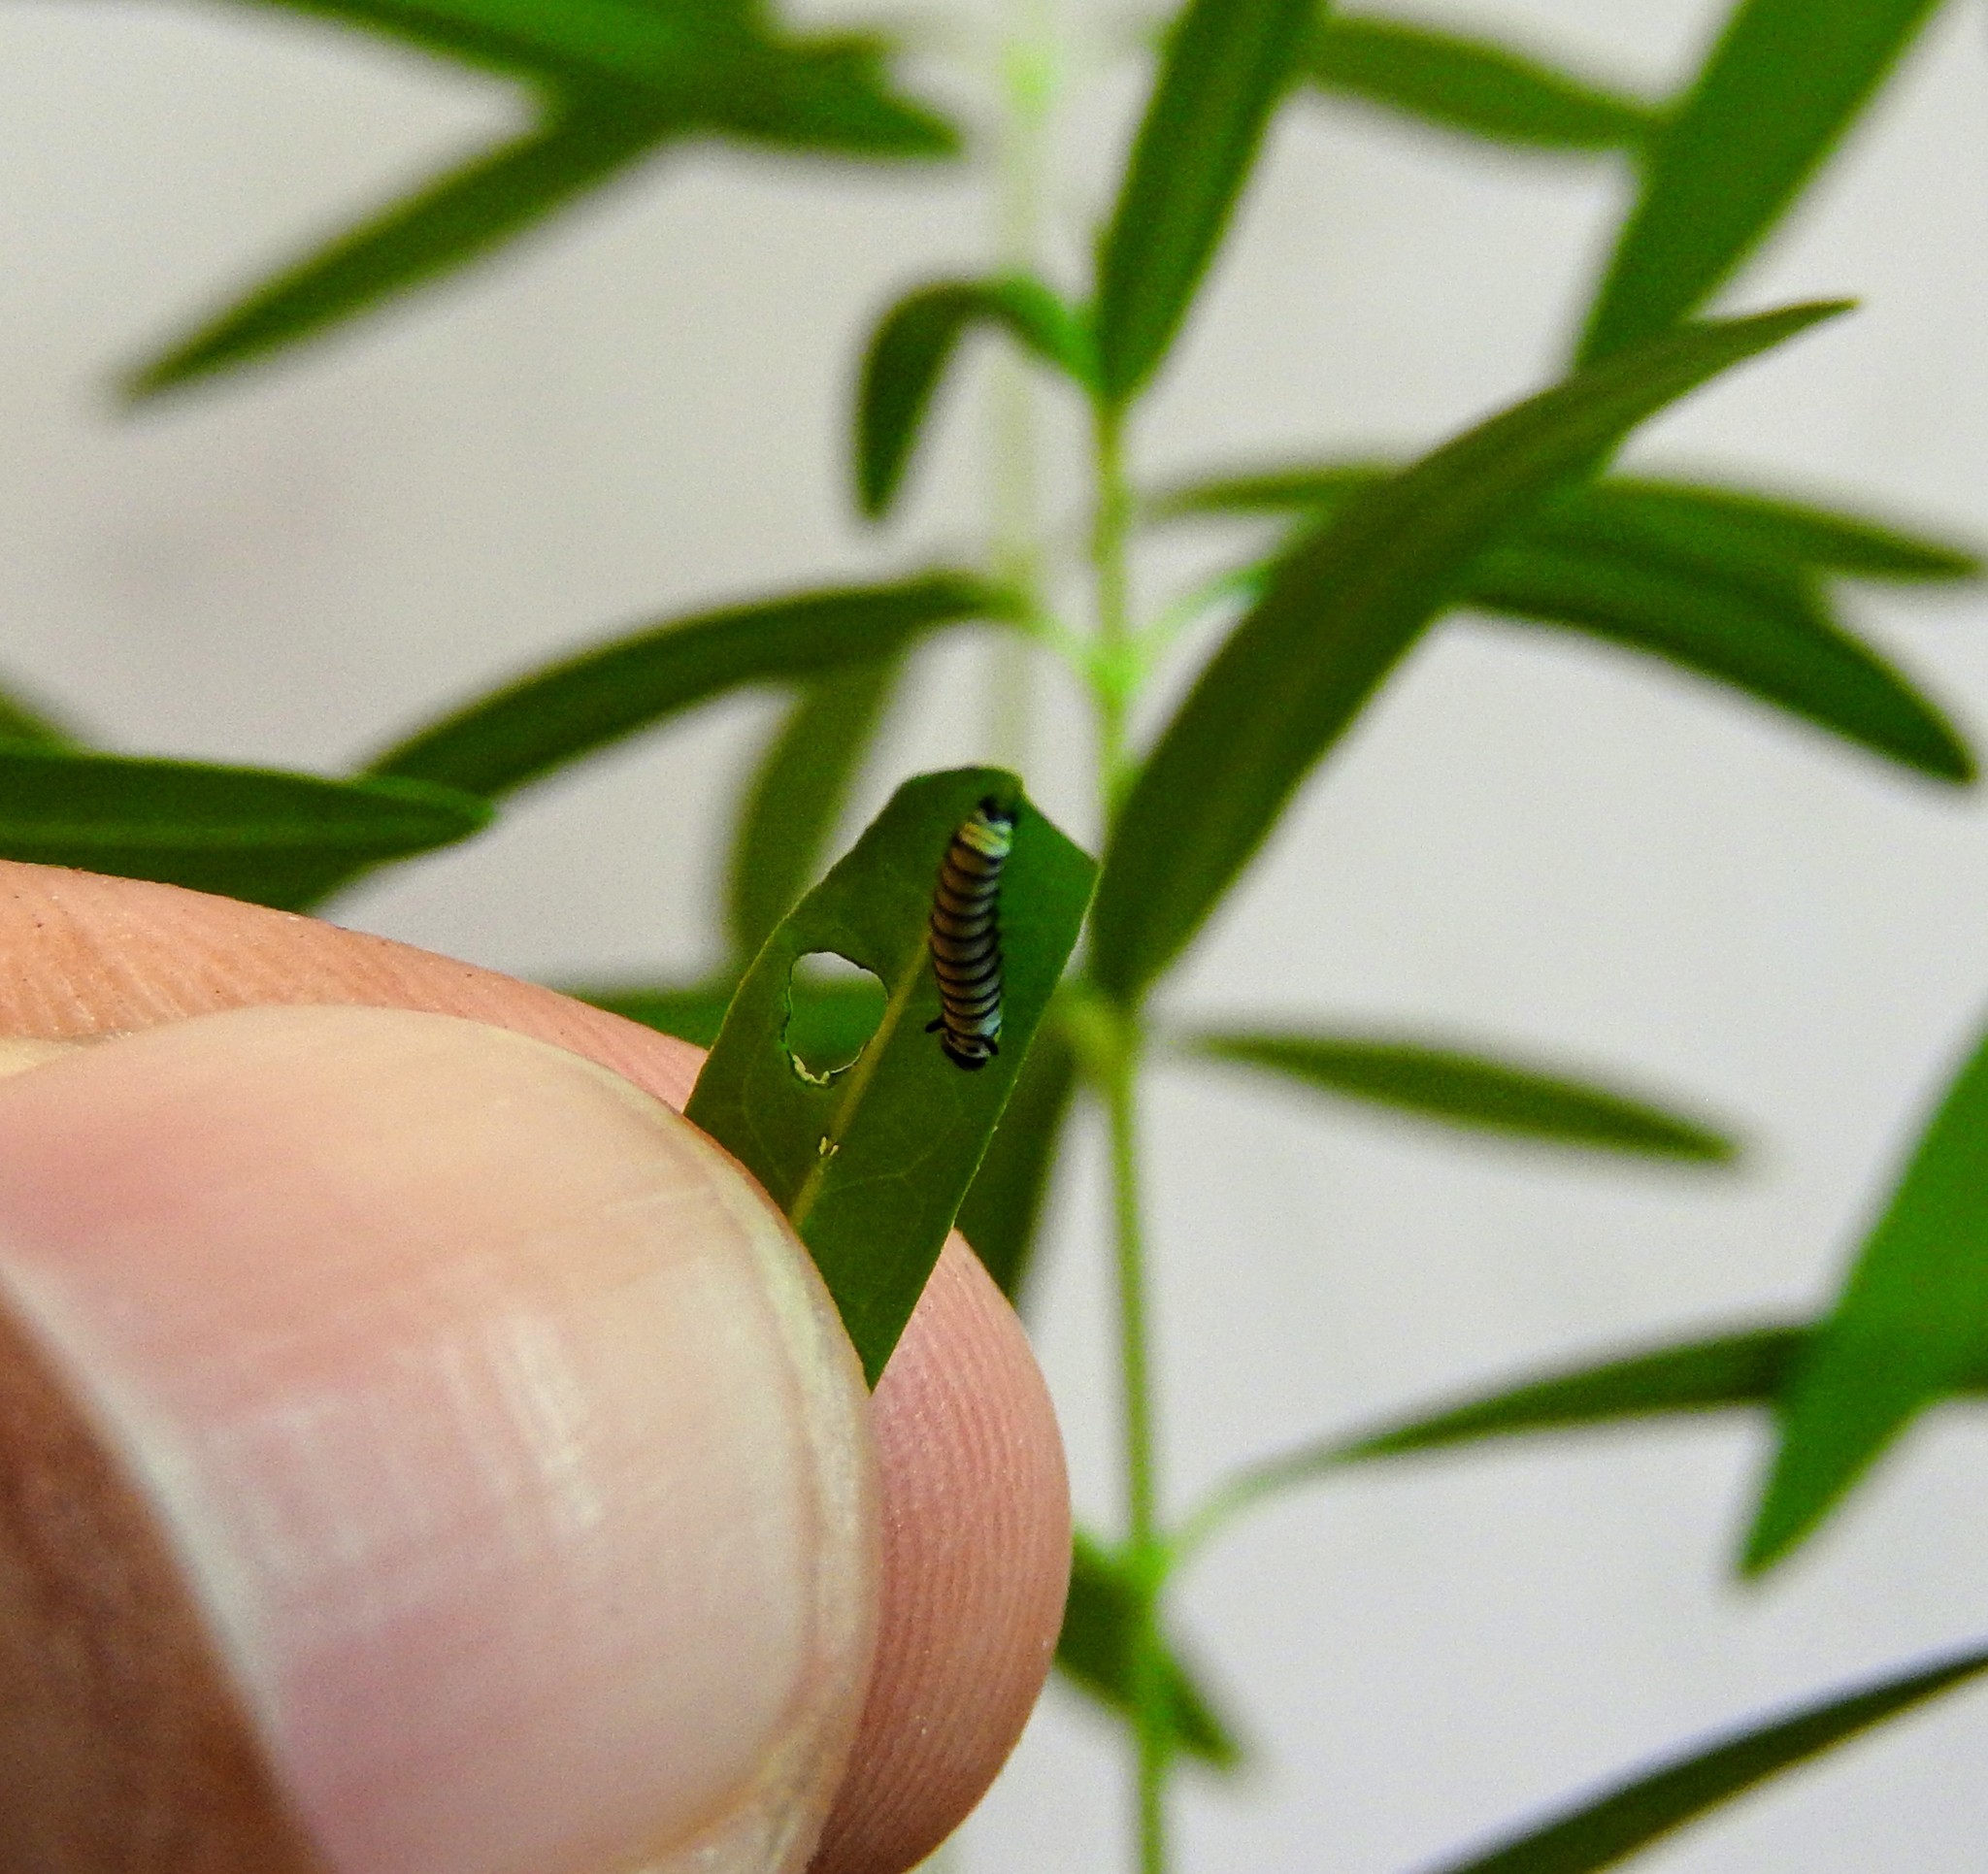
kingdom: Animalia
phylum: Arthropoda
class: Insecta
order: Lepidoptera
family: Nymphalidae
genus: Danaus
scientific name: Danaus plexippus
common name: Monarch
